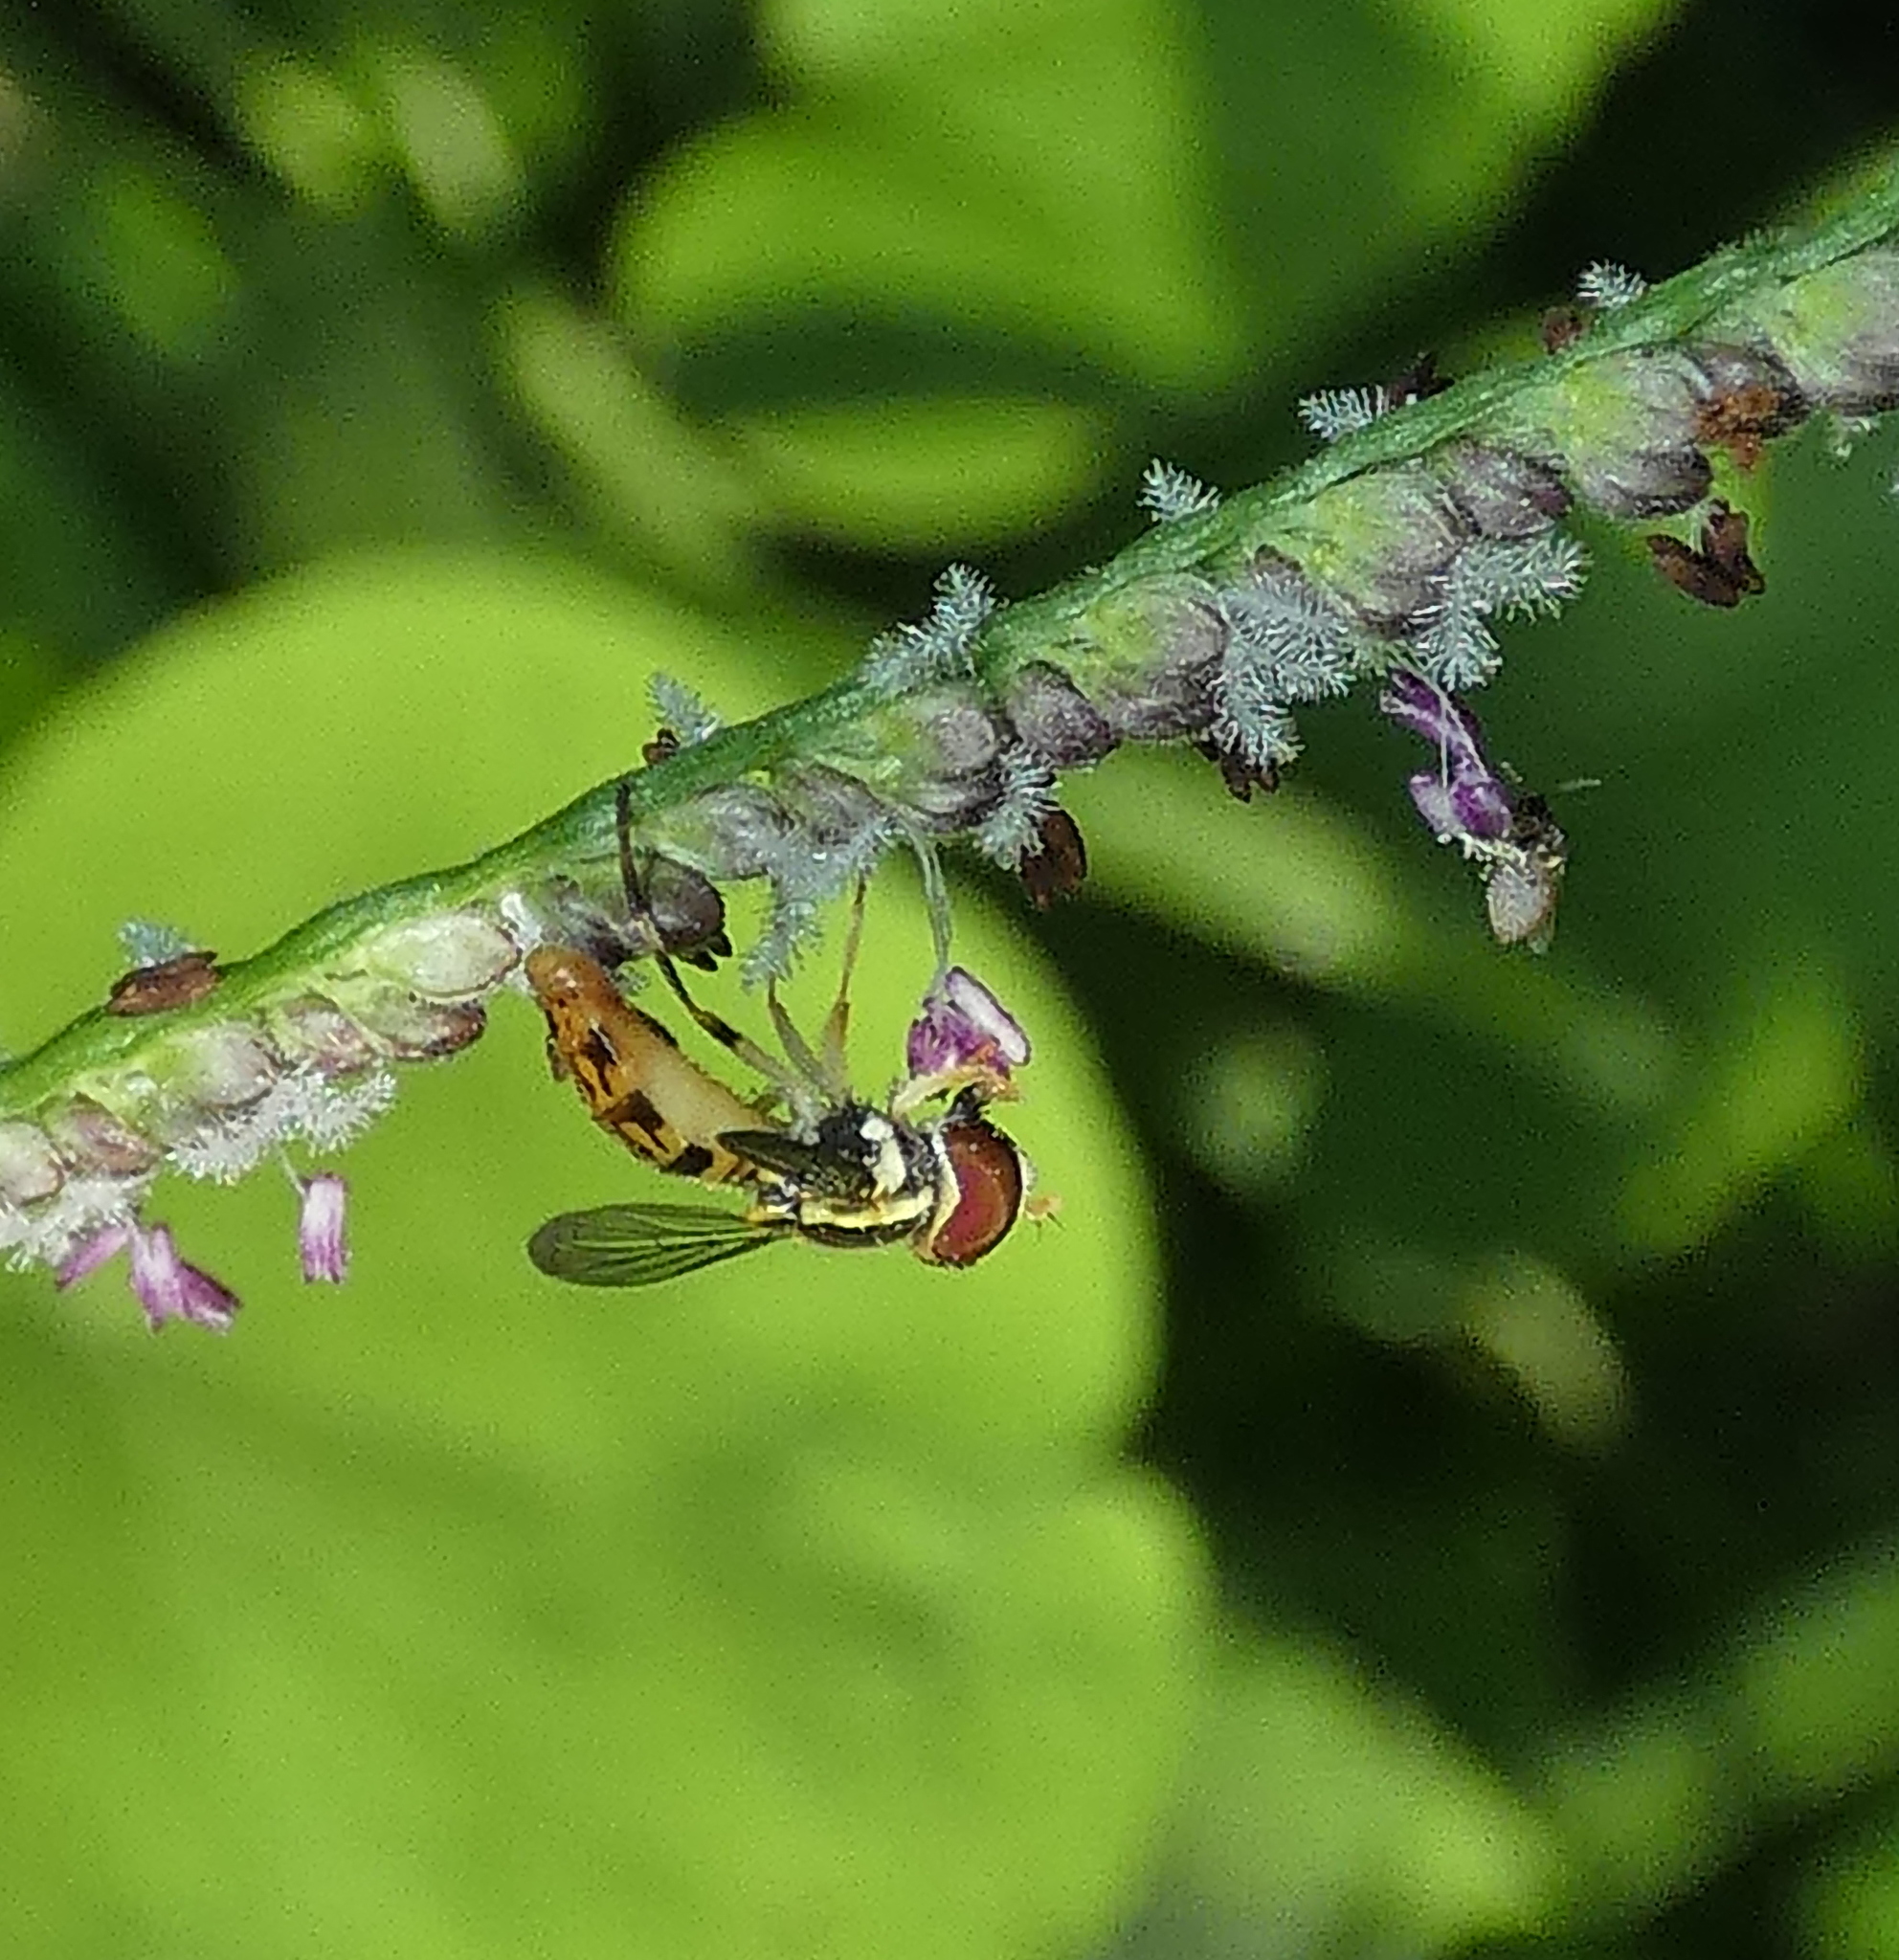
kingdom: Animalia
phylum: Arthropoda
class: Insecta
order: Diptera
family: Syrphidae
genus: Toxomerus
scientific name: Toxomerus pictus
